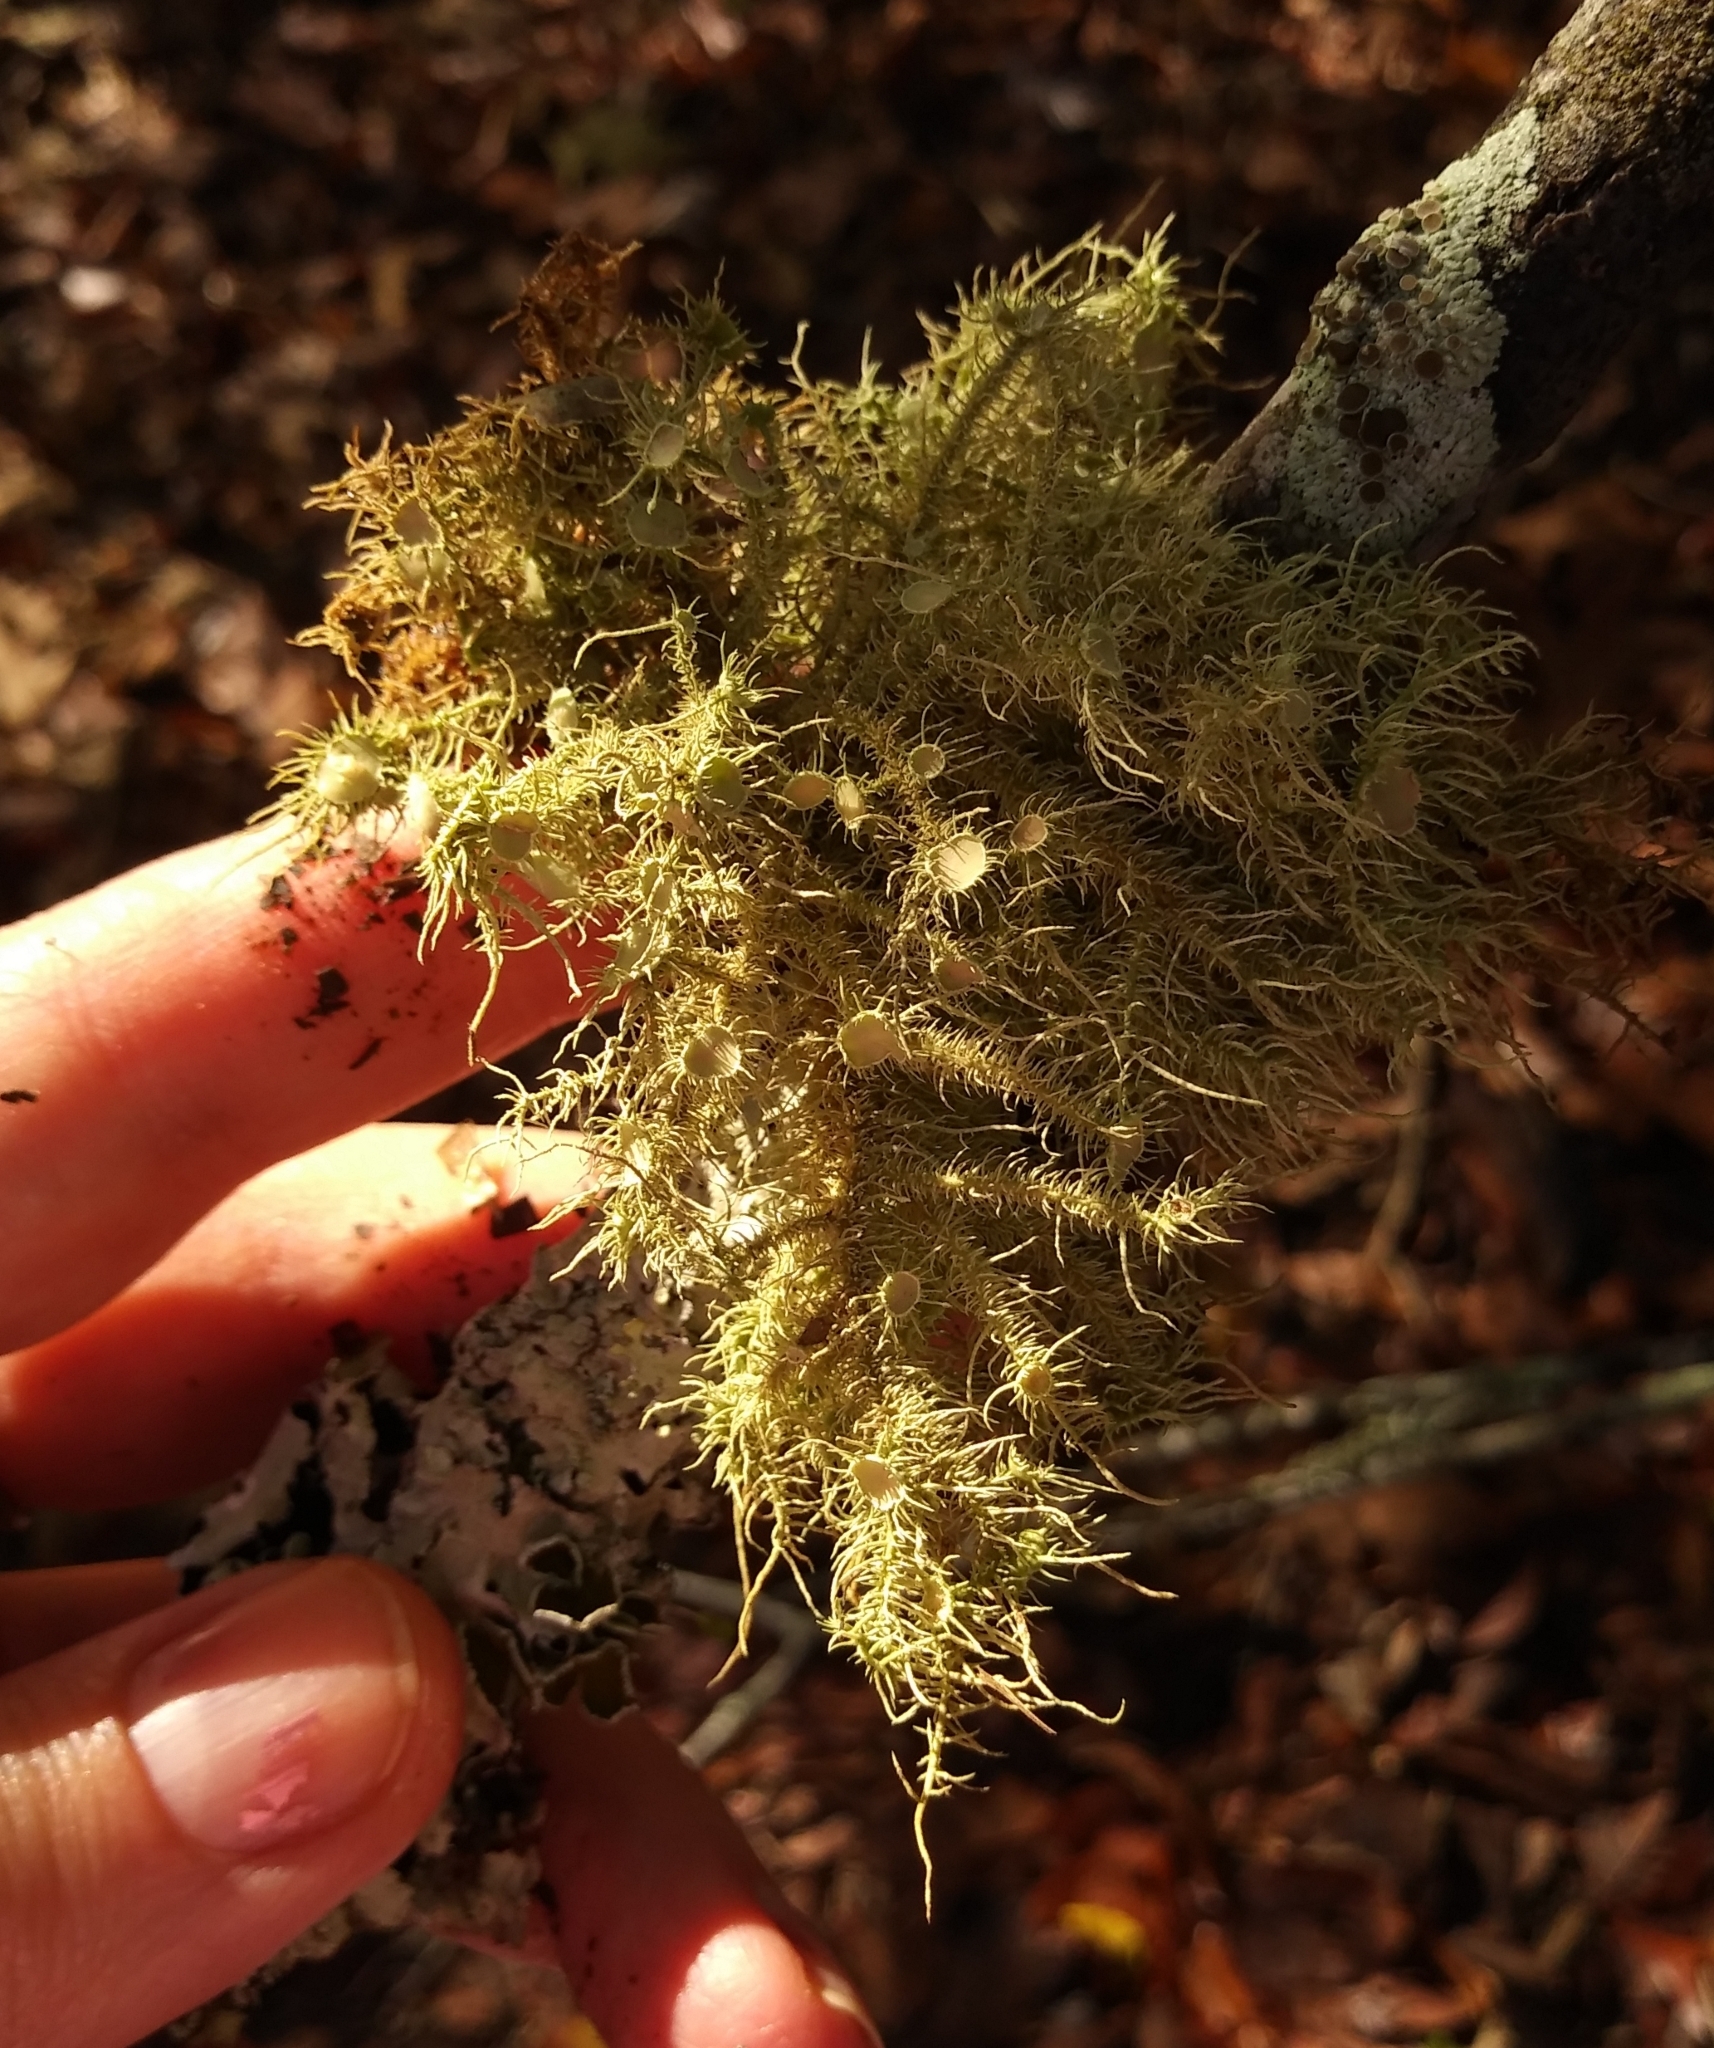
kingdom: Fungi
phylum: Ascomycota
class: Lecanoromycetes
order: Lecanorales
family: Parmeliaceae
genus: Usnea
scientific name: Usnea strigosa
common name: Bushy beard lichen
